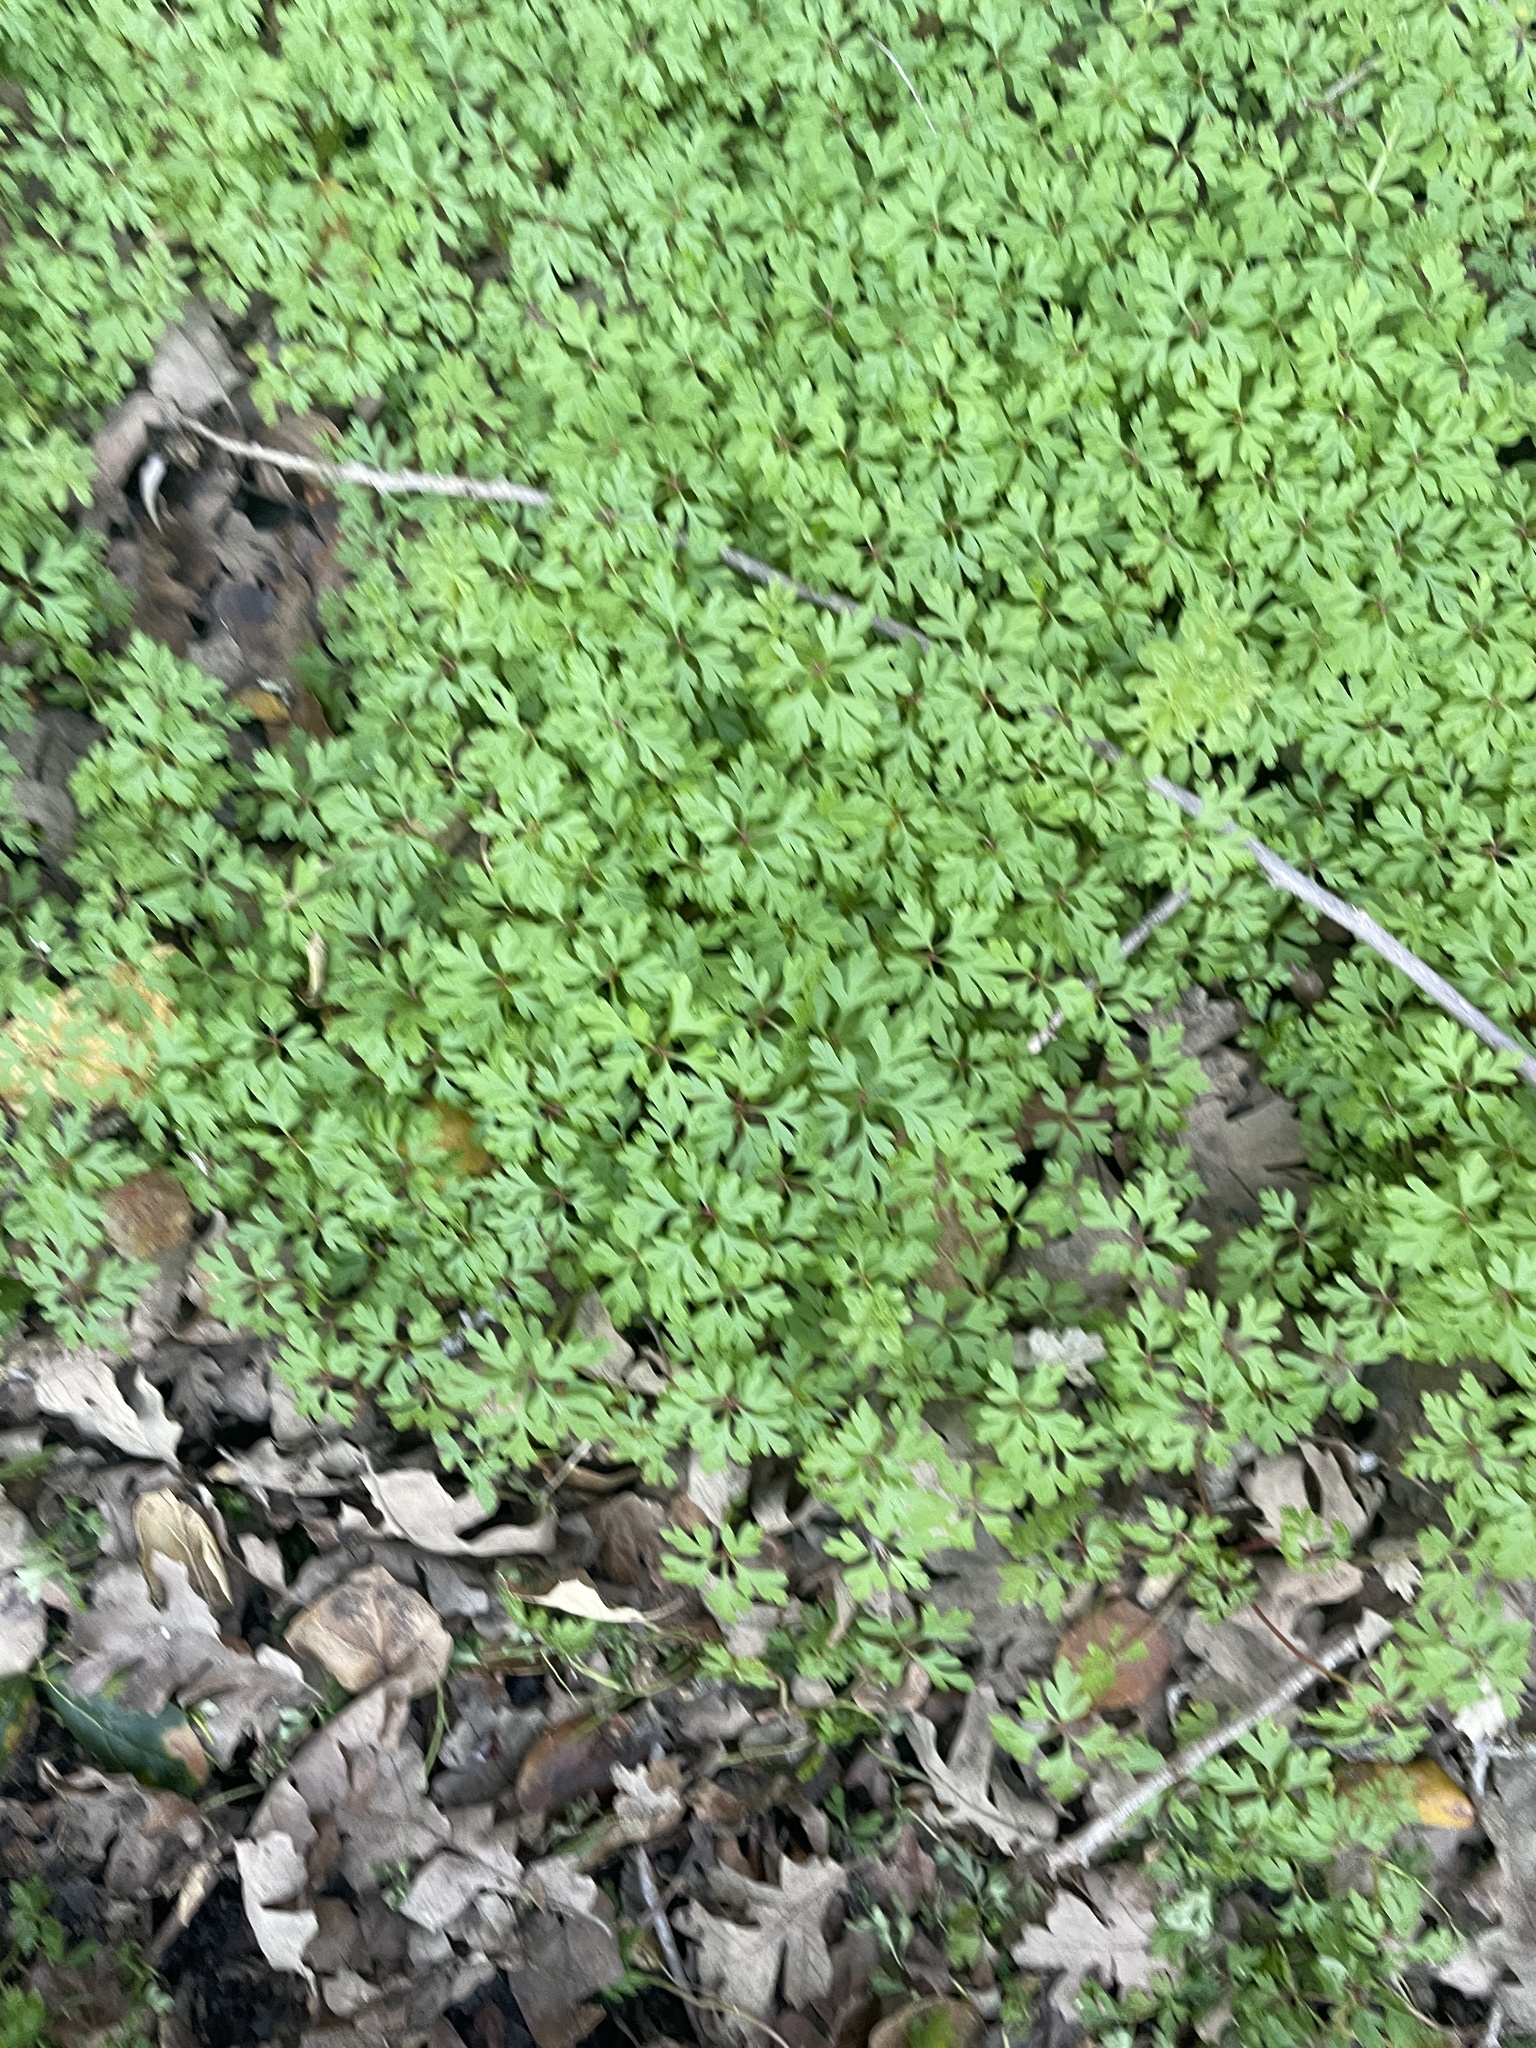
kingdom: Plantae
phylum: Tracheophyta
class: Magnoliopsida
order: Geraniales
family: Geraniaceae
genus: Geranium
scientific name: Geranium
